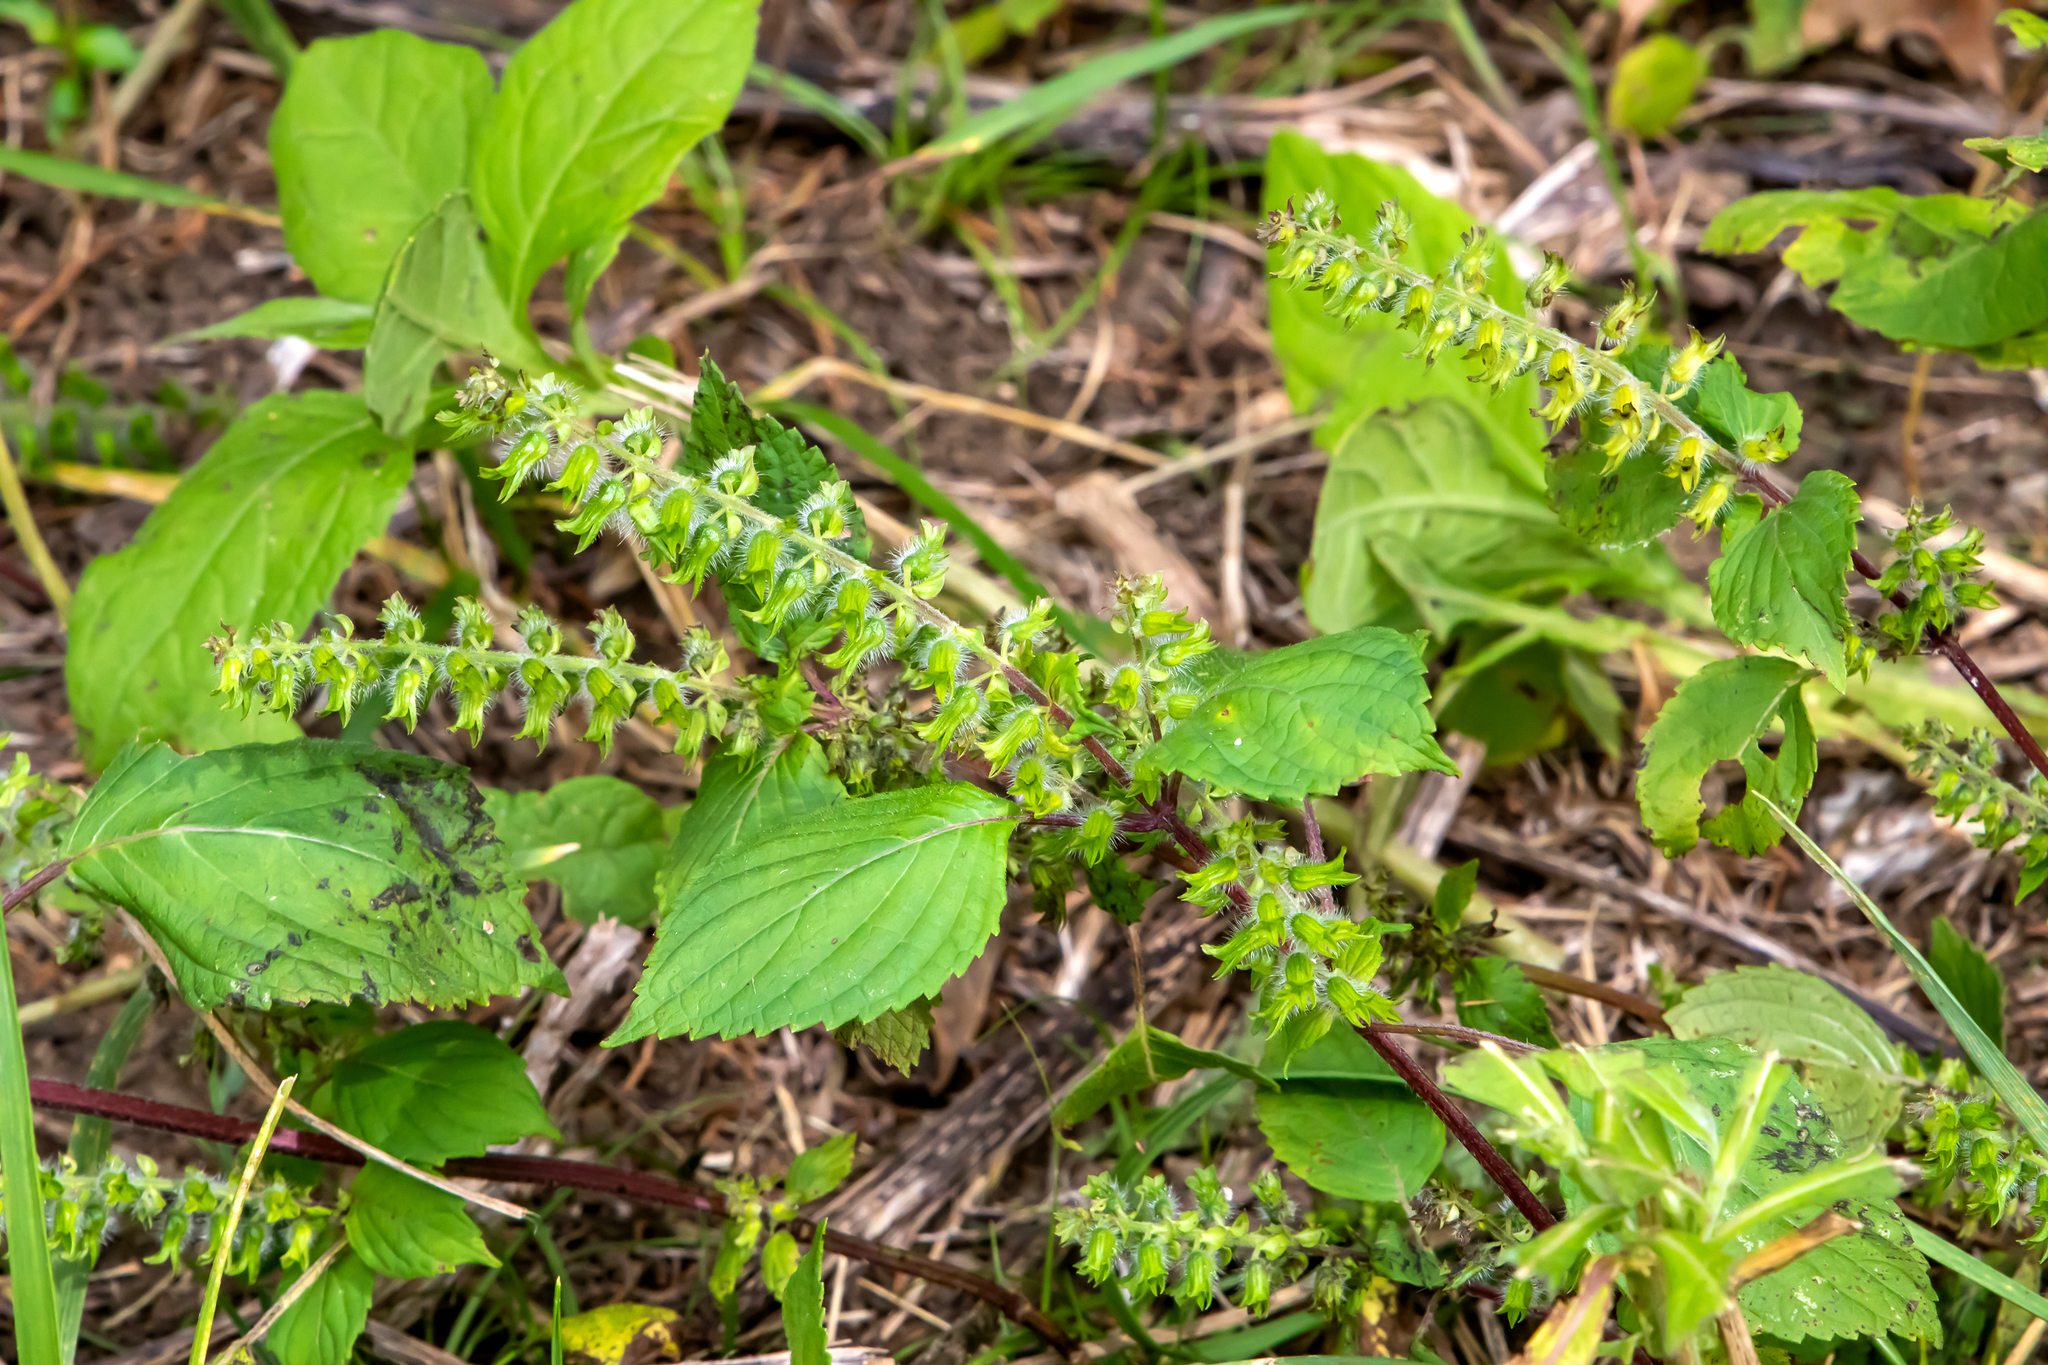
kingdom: Plantae
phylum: Tracheophyta
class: Magnoliopsida
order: Lamiales
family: Lamiaceae
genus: Perilla
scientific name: Perilla frutescens
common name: Perilla
